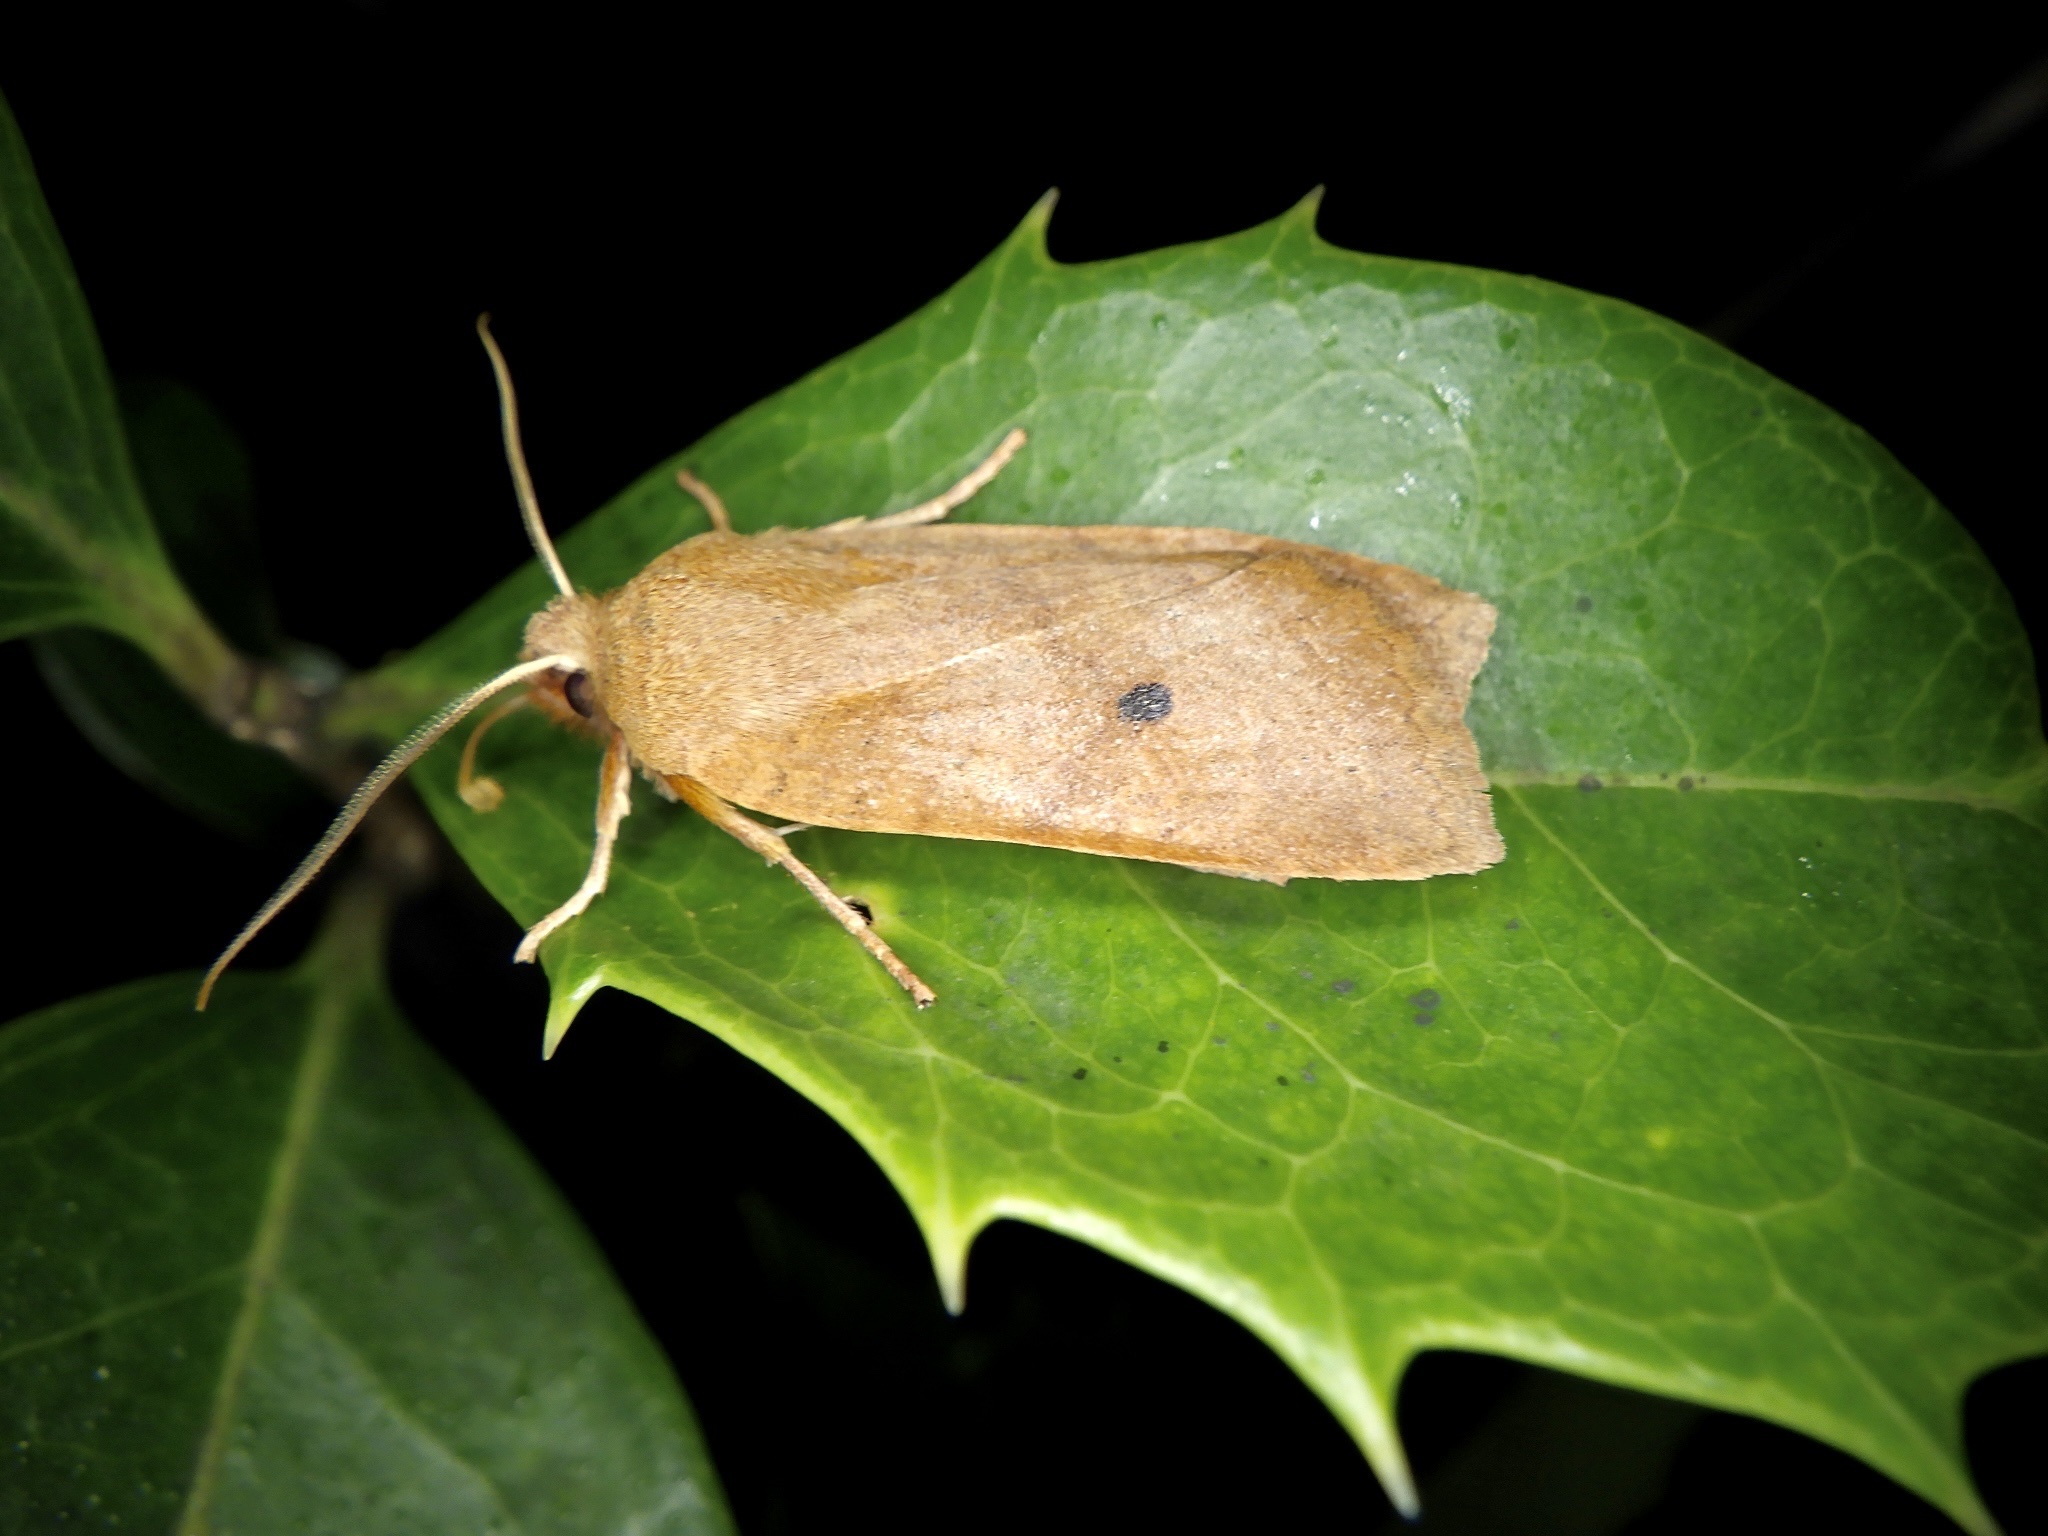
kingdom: Animalia
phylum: Arthropoda
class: Insecta
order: Lepidoptera
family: Noctuidae
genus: Conistra
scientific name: Conistra albipuncta
